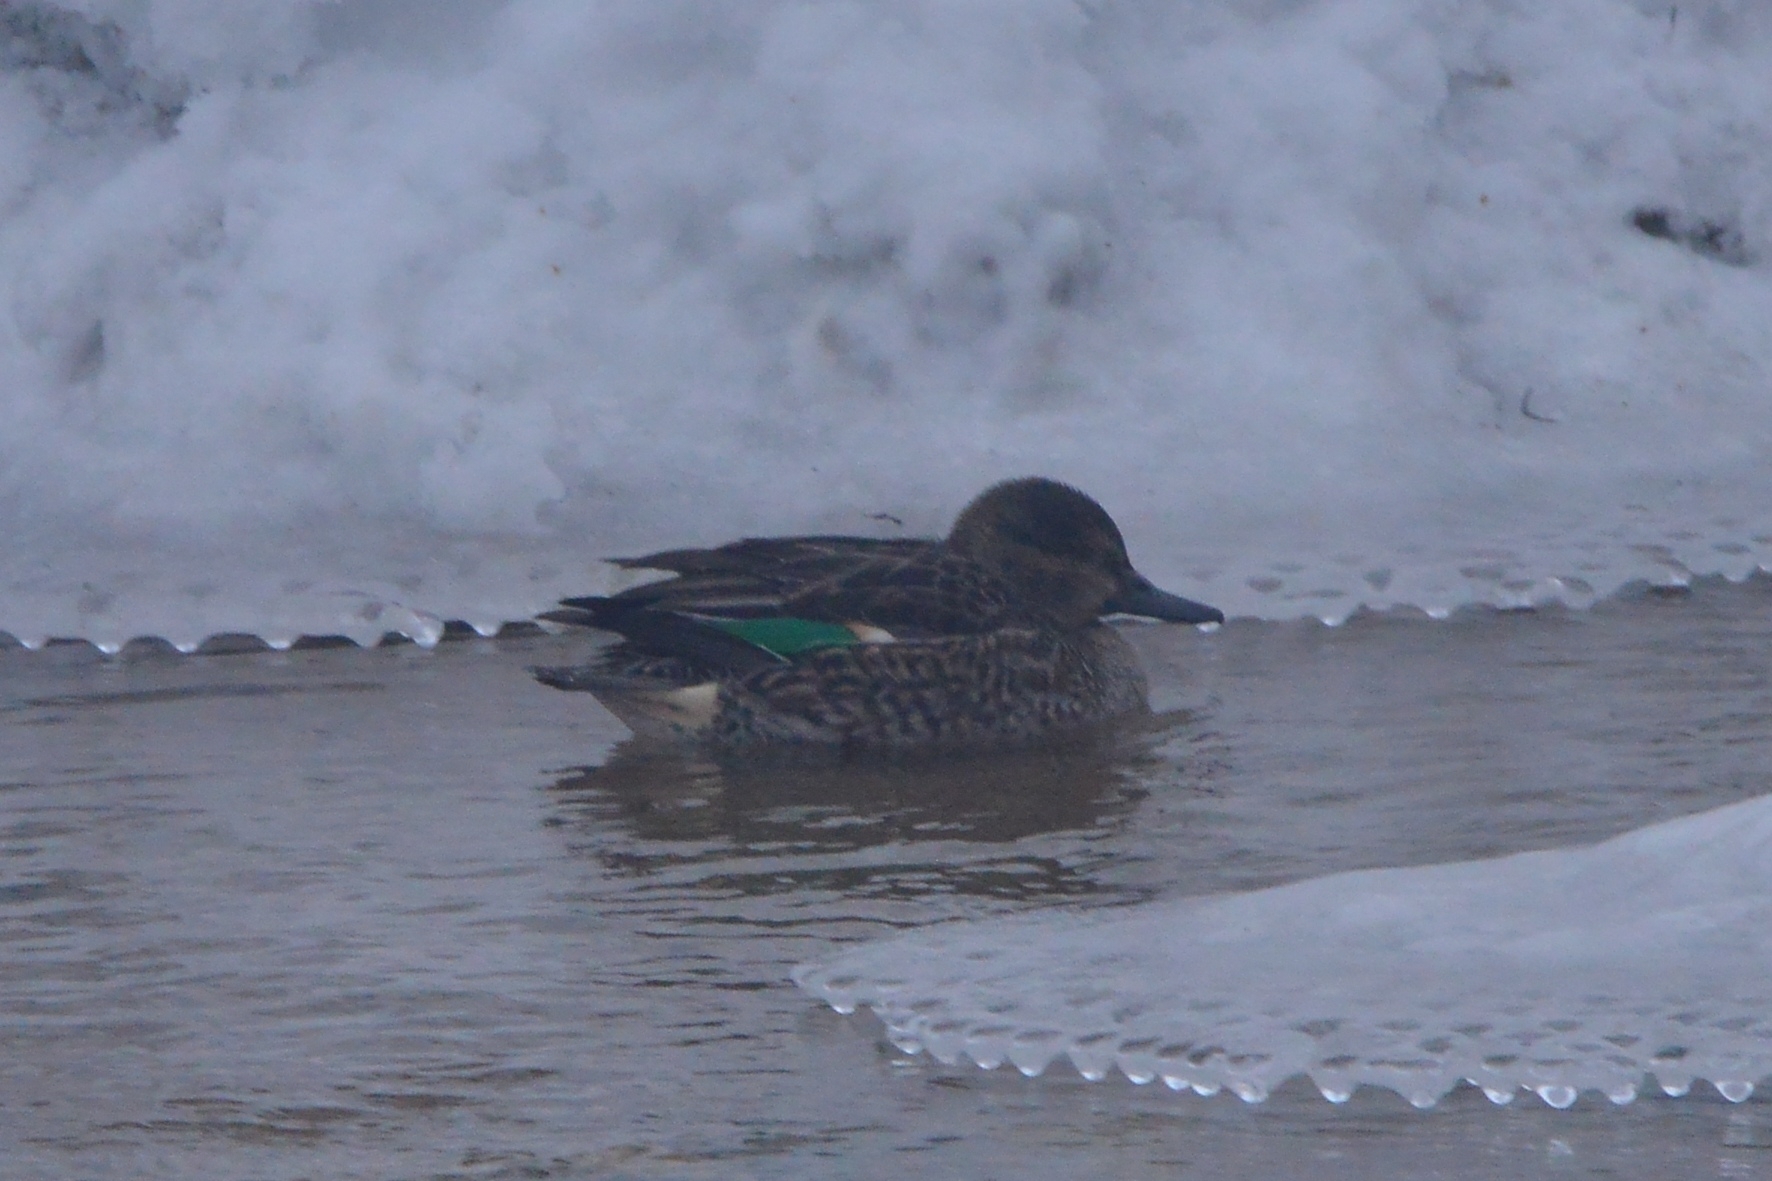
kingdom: Animalia
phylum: Chordata
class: Aves
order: Anseriformes
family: Anatidae
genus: Anas
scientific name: Anas crecca
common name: Eurasian teal
